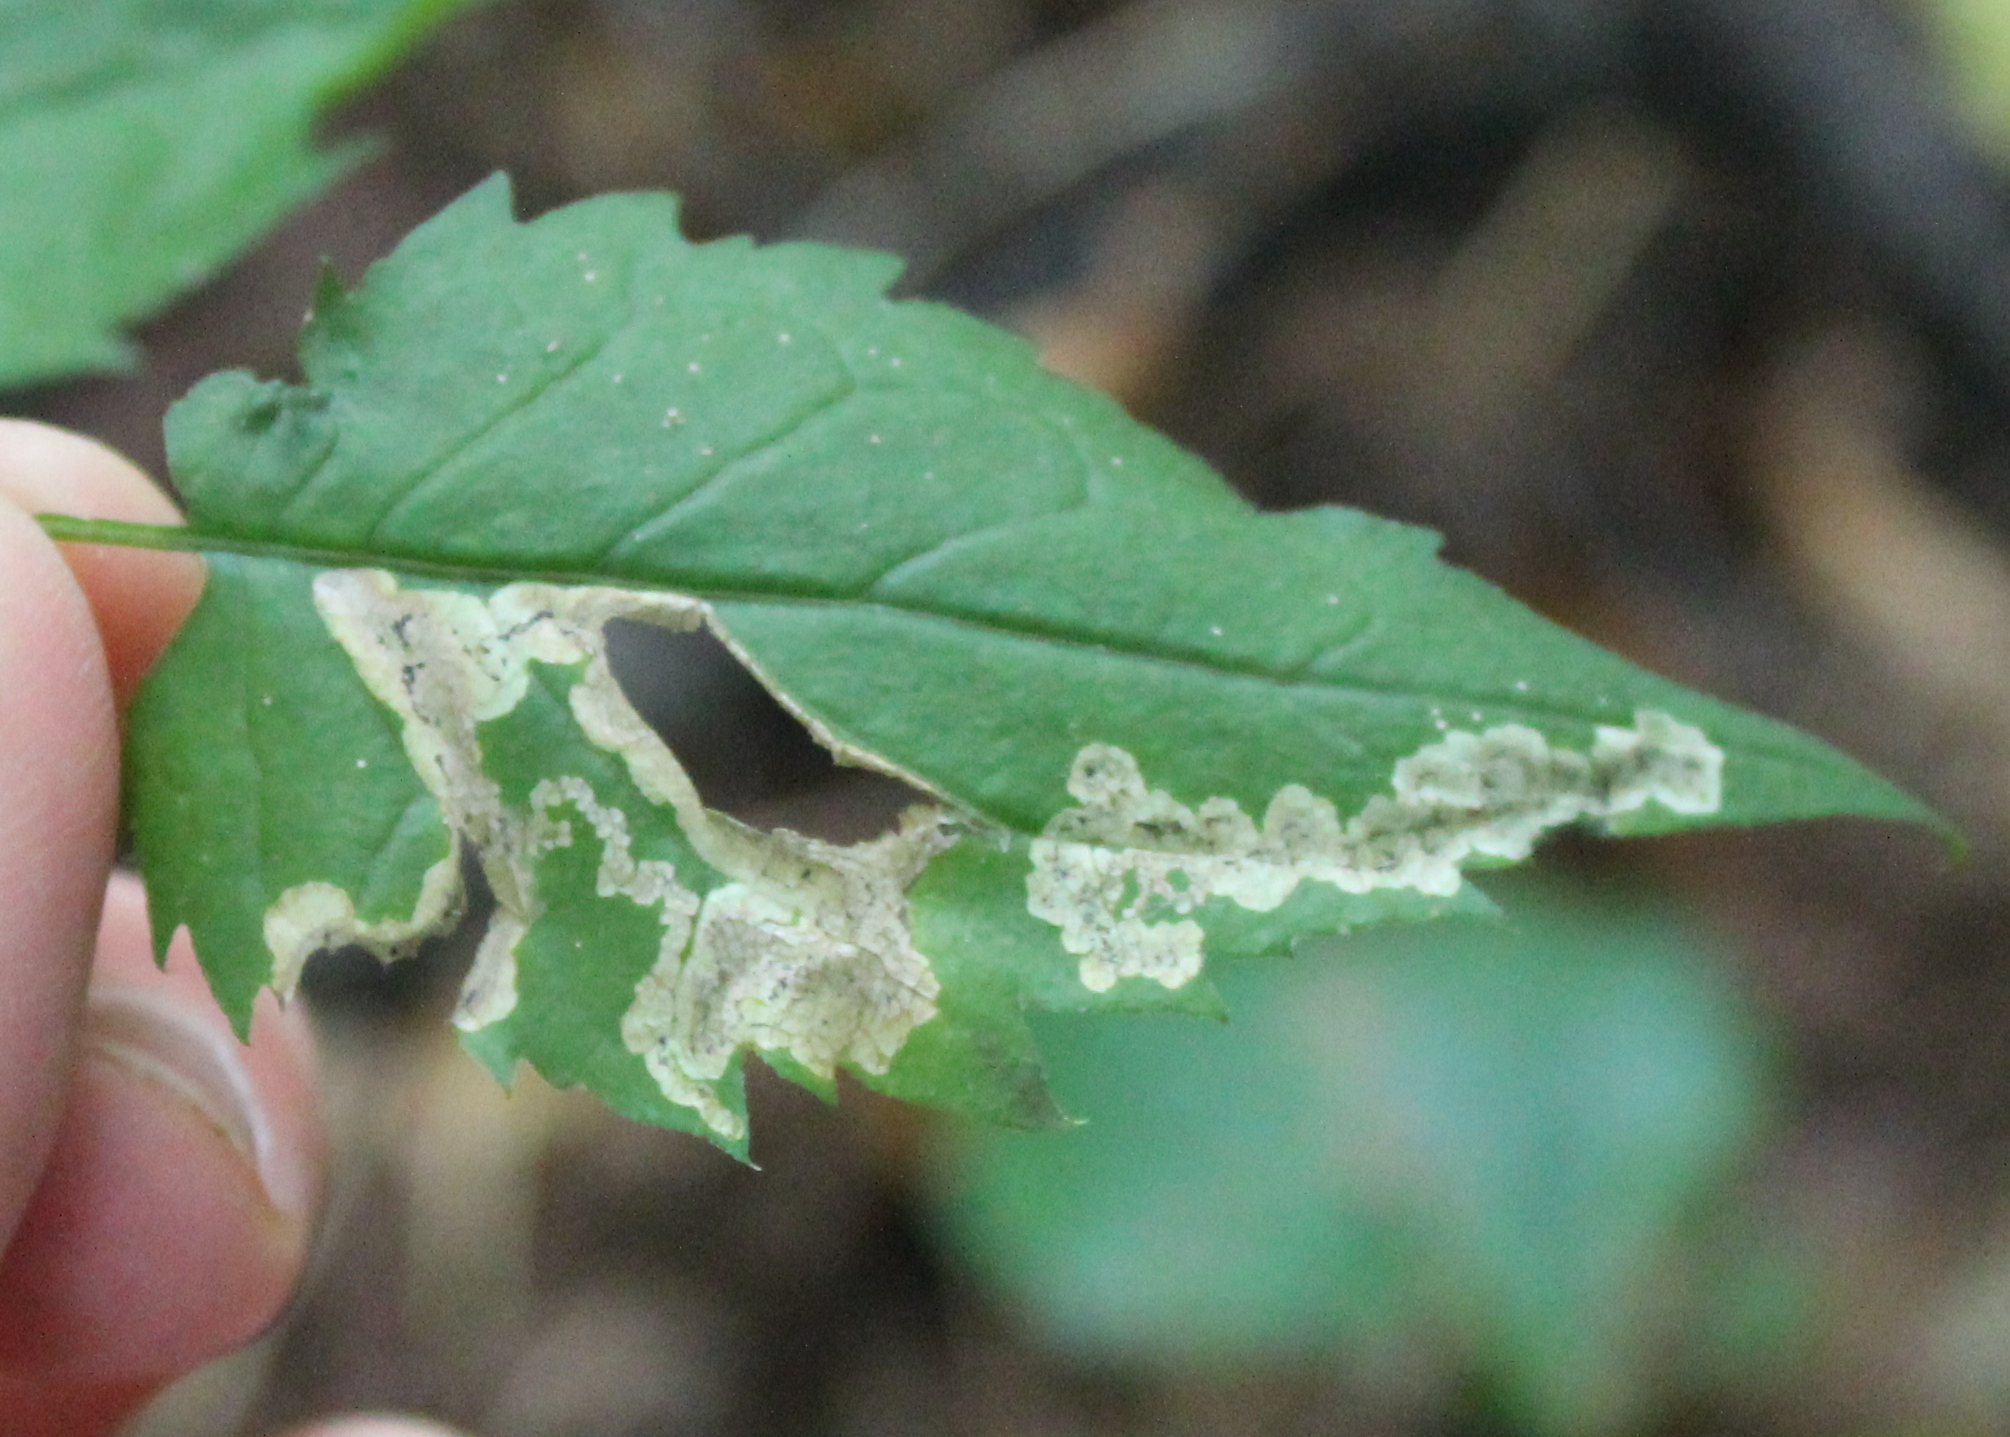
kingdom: Animalia
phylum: Arthropoda
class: Insecta
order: Diptera
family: Agromyzidae
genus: Liriomyza
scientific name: Liriomyza limopsis
